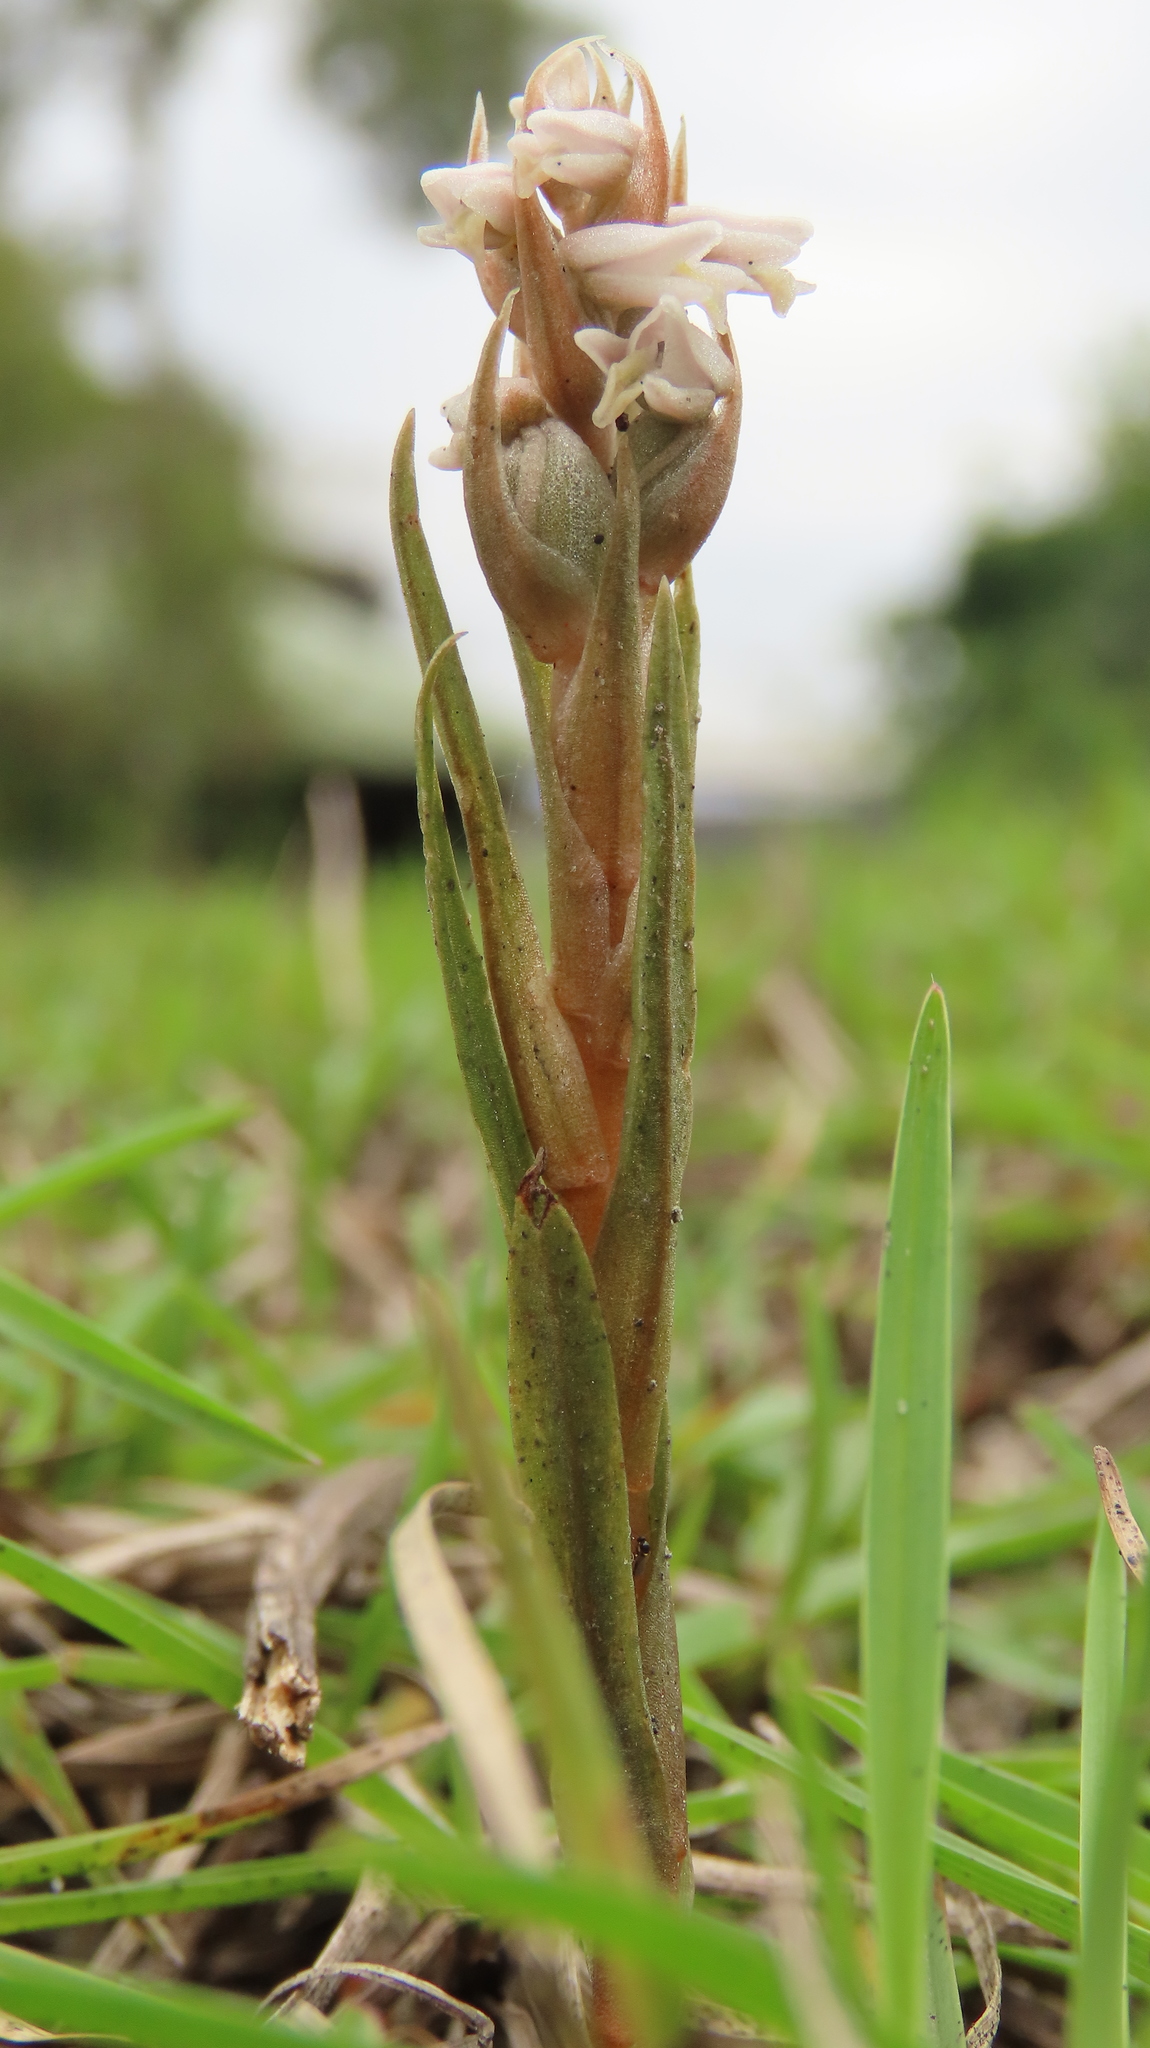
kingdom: Plantae
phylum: Tracheophyta
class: Liliopsida
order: Asparagales
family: Orchidaceae
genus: Zeuxine
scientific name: Zeuxine strateumatica
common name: Soldier's orchid
